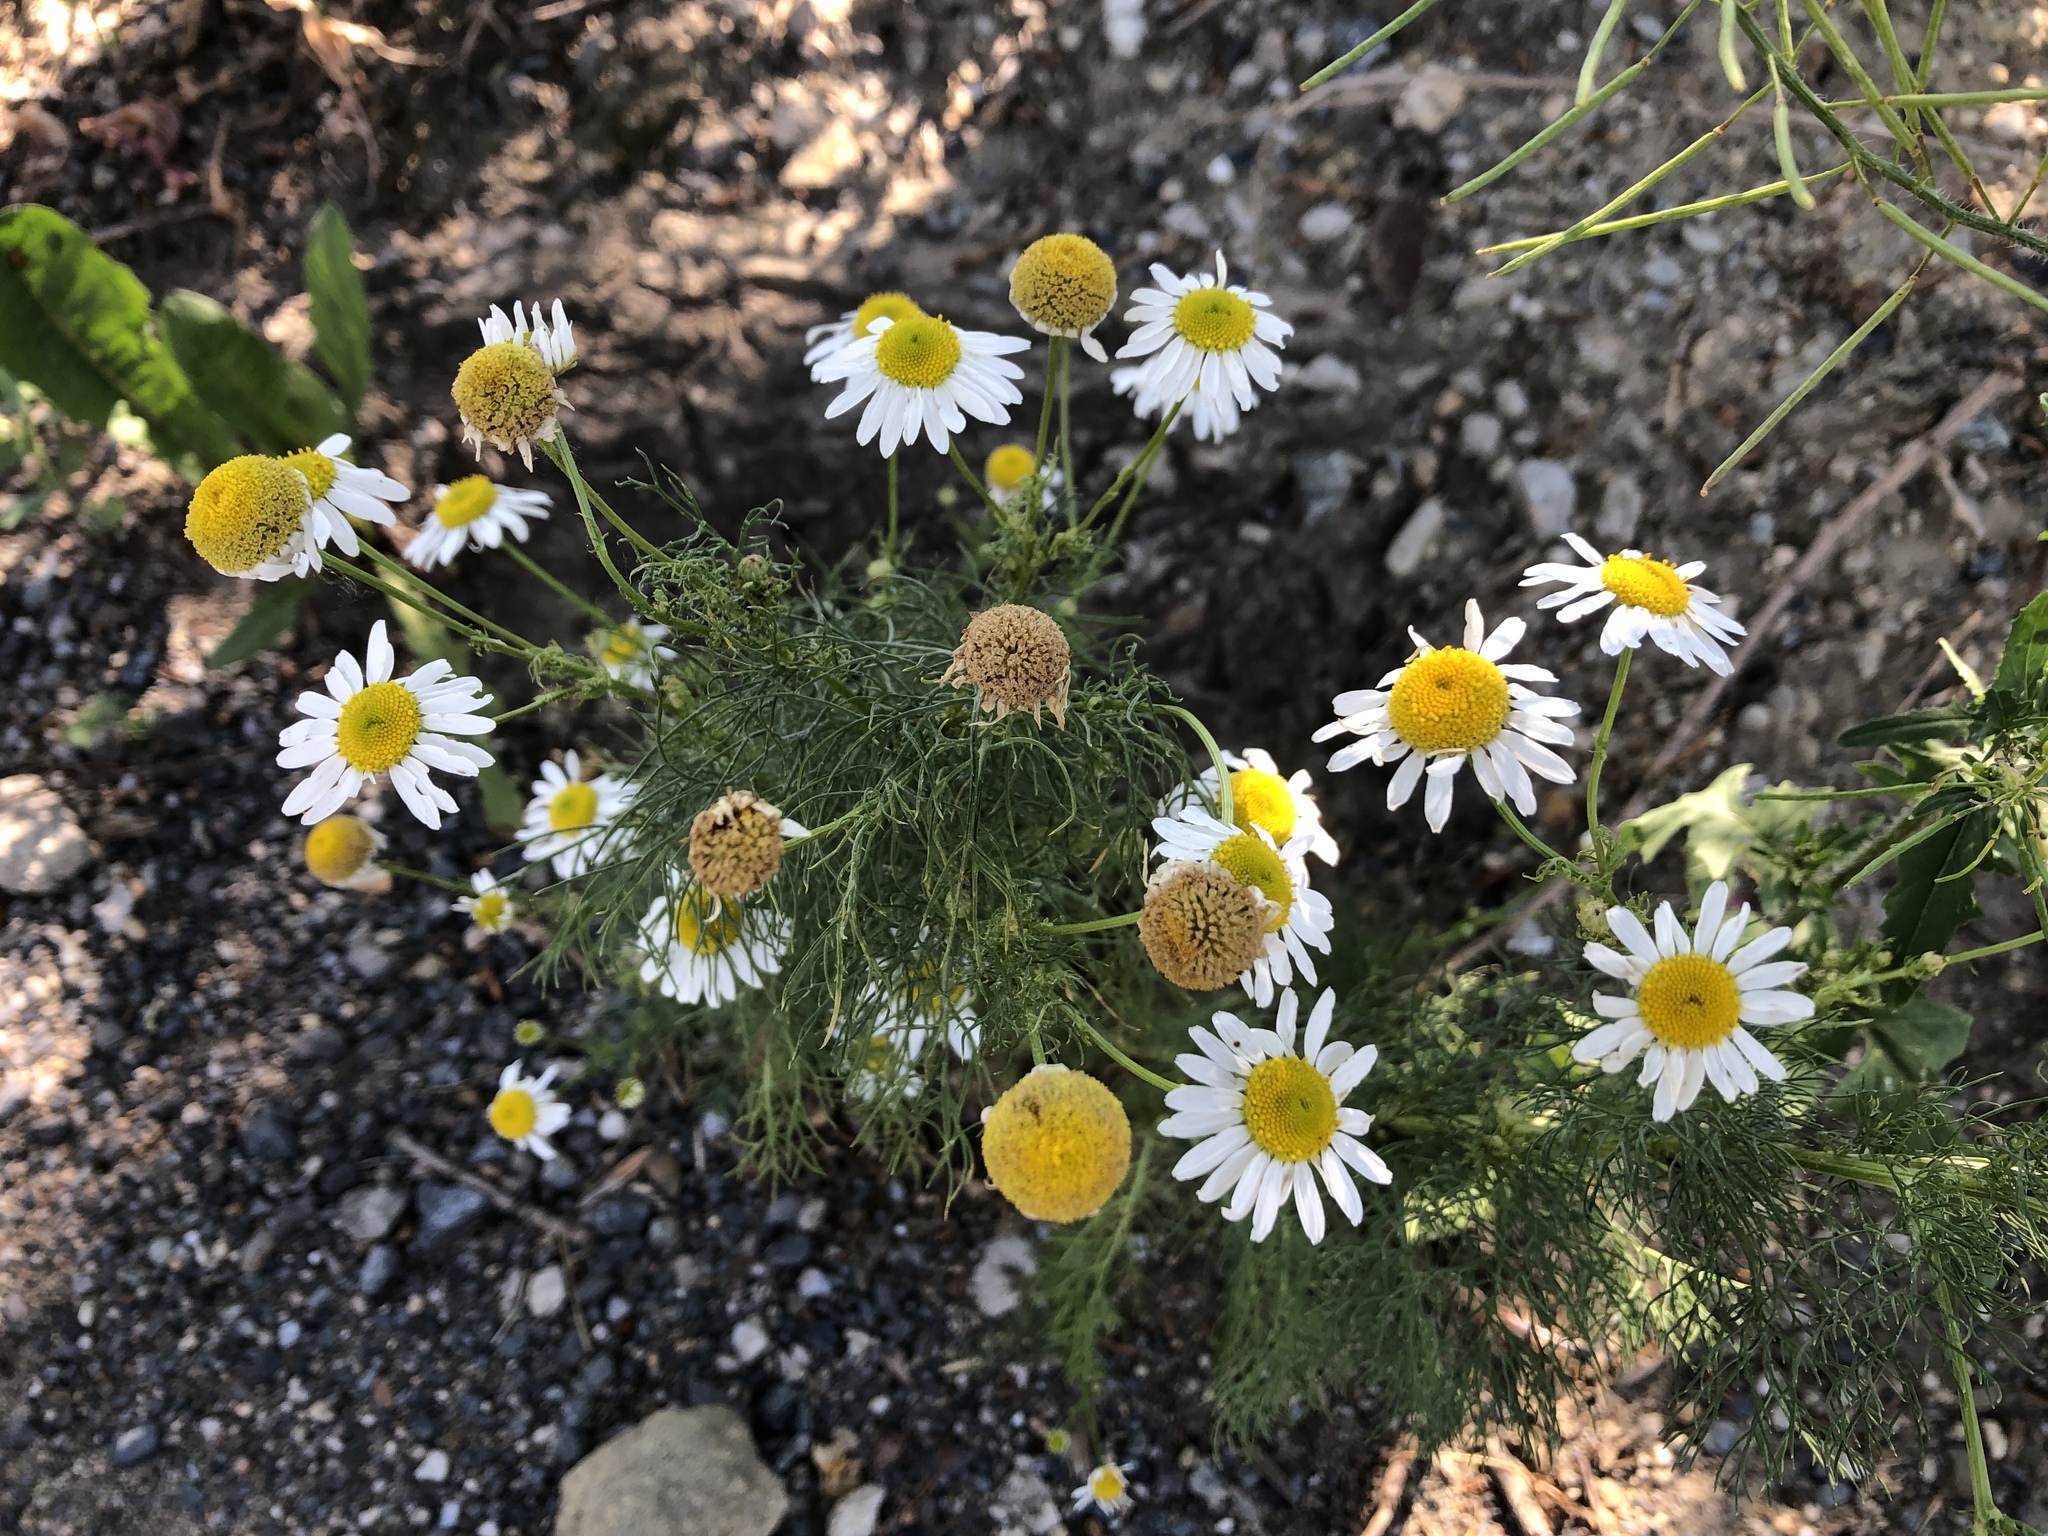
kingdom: Plantae
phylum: Tracheophyta
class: Magnoliopsida
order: Asterales
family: Asteraceae
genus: Tripleurospermum
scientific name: Tripleurospermum inodorum
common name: Scentless mayweed
